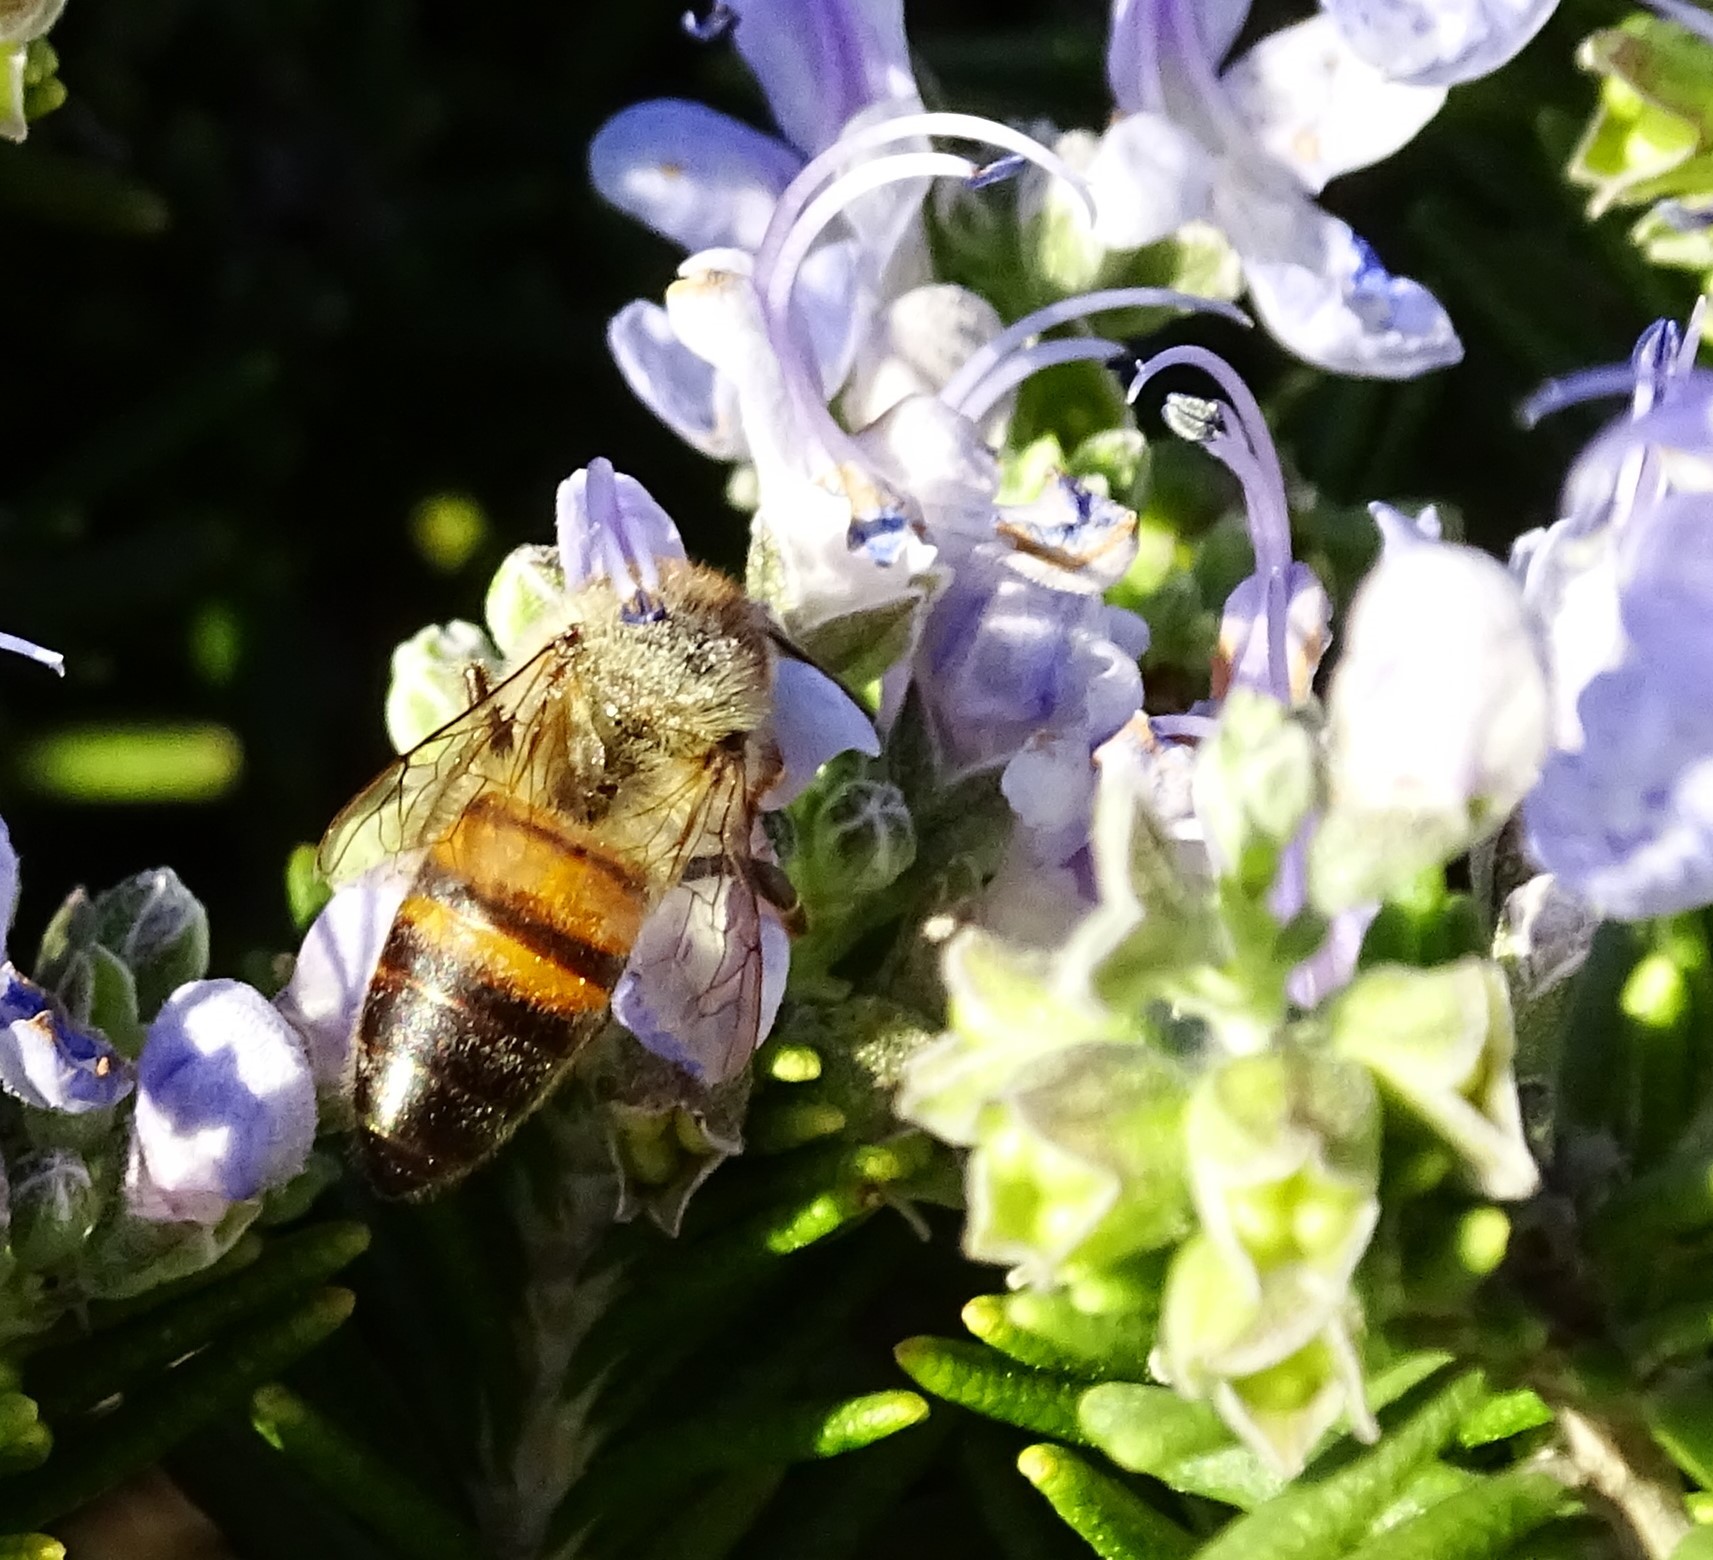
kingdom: Animalia
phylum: Arthropoda
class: Insecta
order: Hymenoptera
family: Apidae
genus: Apis
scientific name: Apis mellifera
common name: Honey bee
